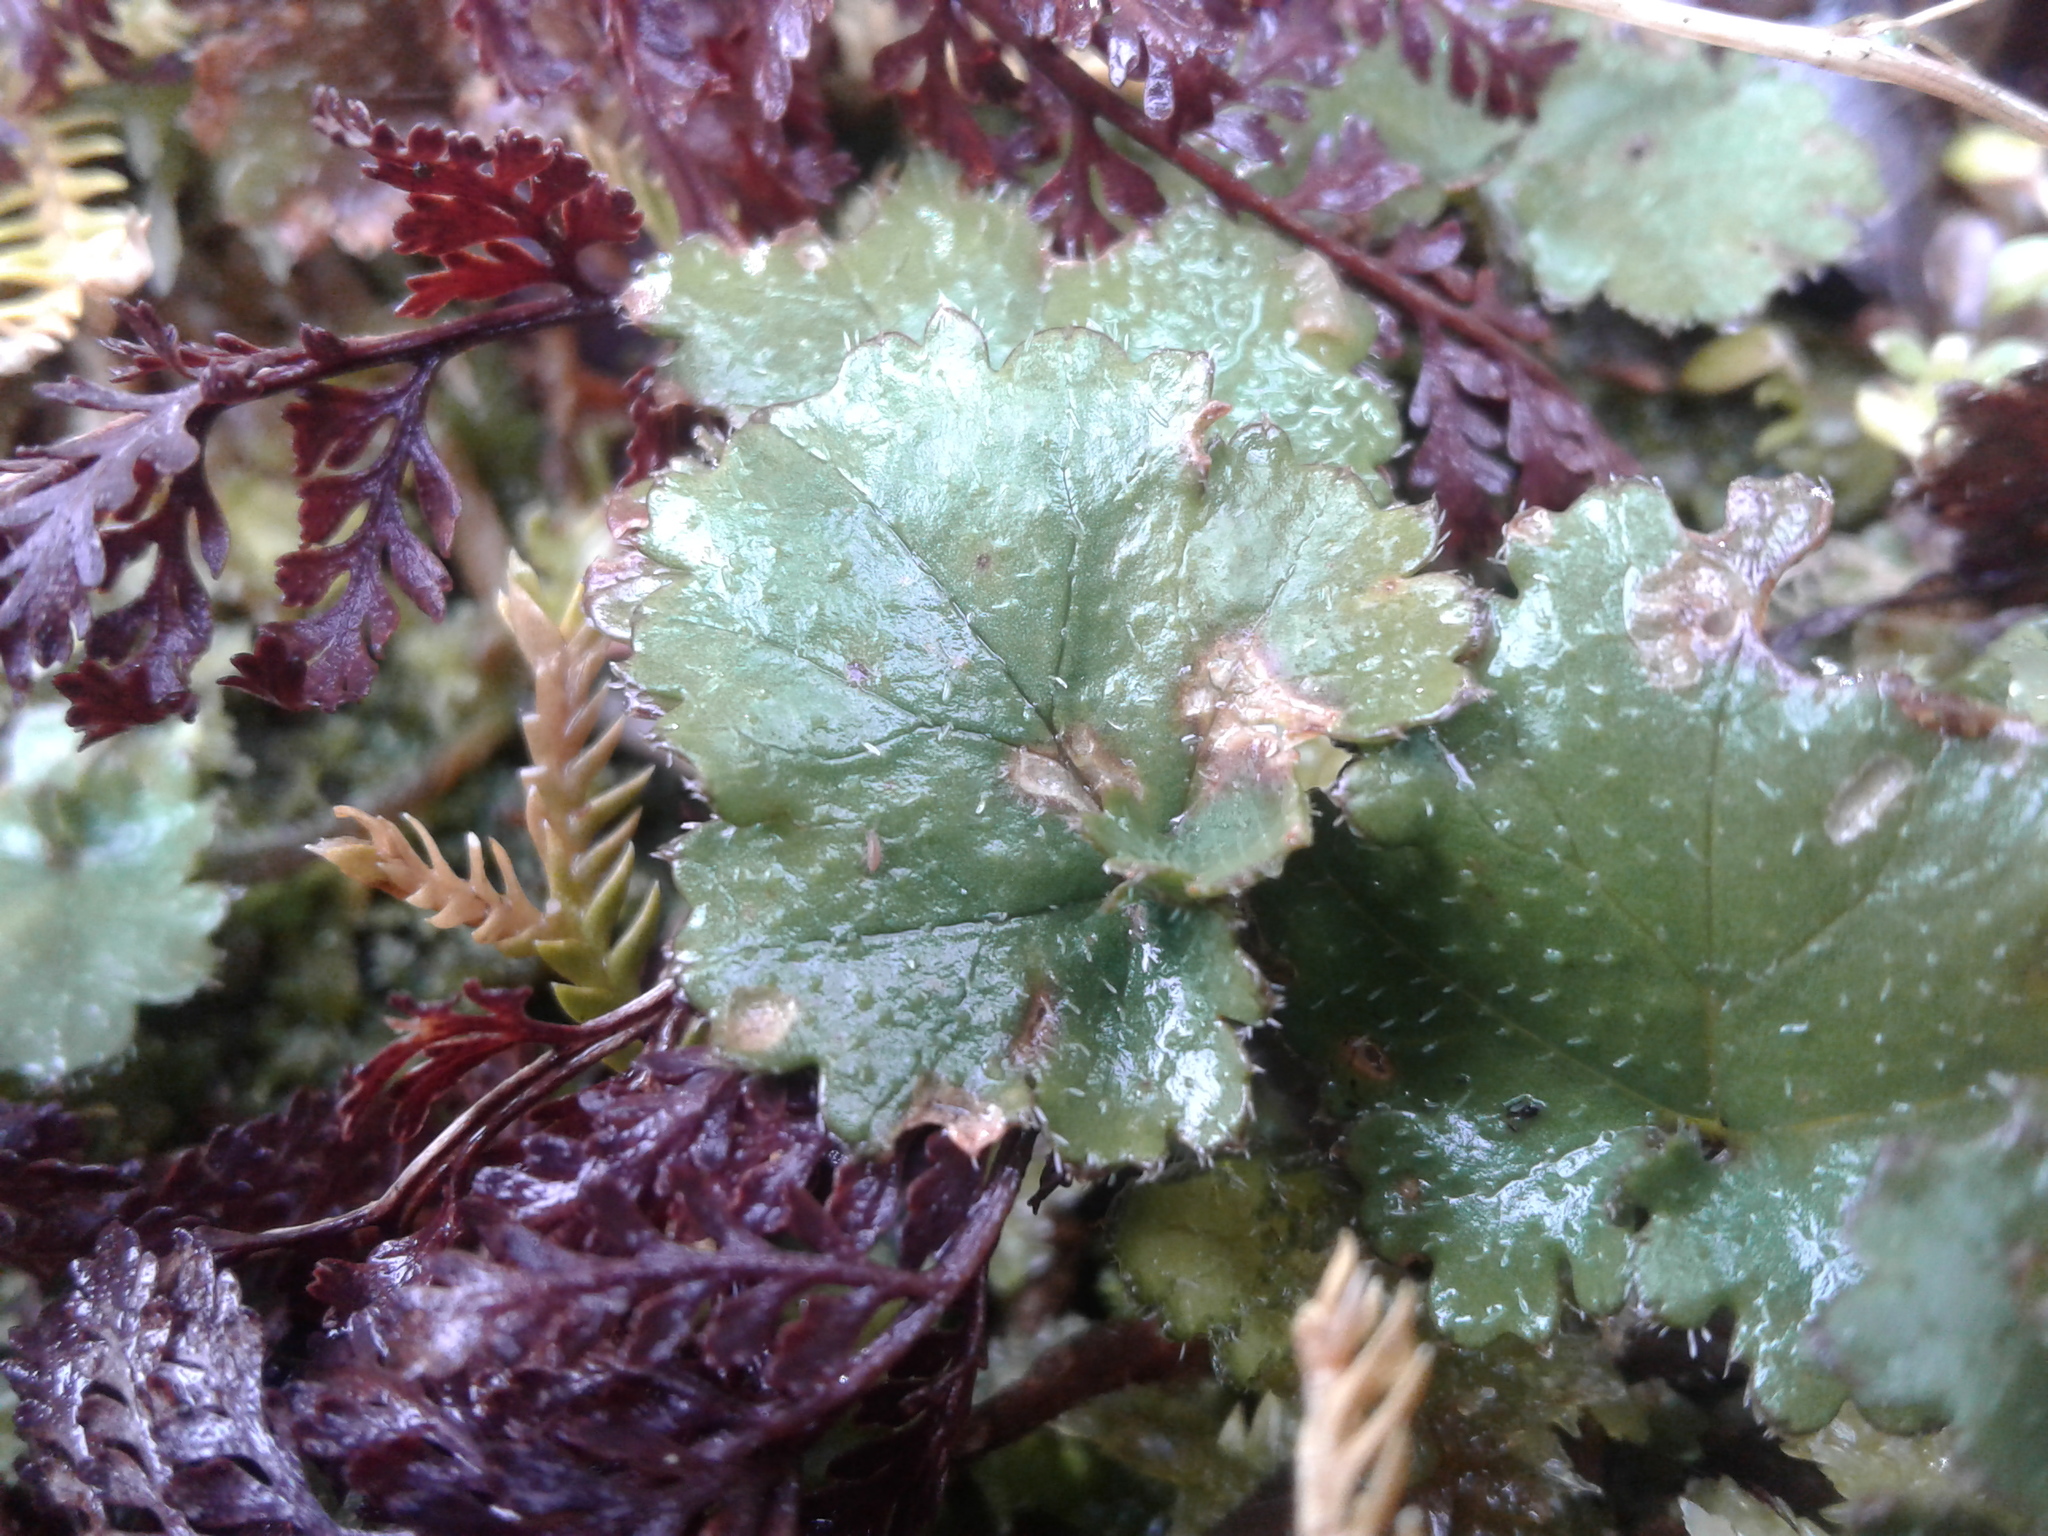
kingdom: Plantae
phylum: Tracheophyta
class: Magnoliopsida
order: Gunnerales
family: Gunneraceae
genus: Gunnera
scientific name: Gunnera monoica
